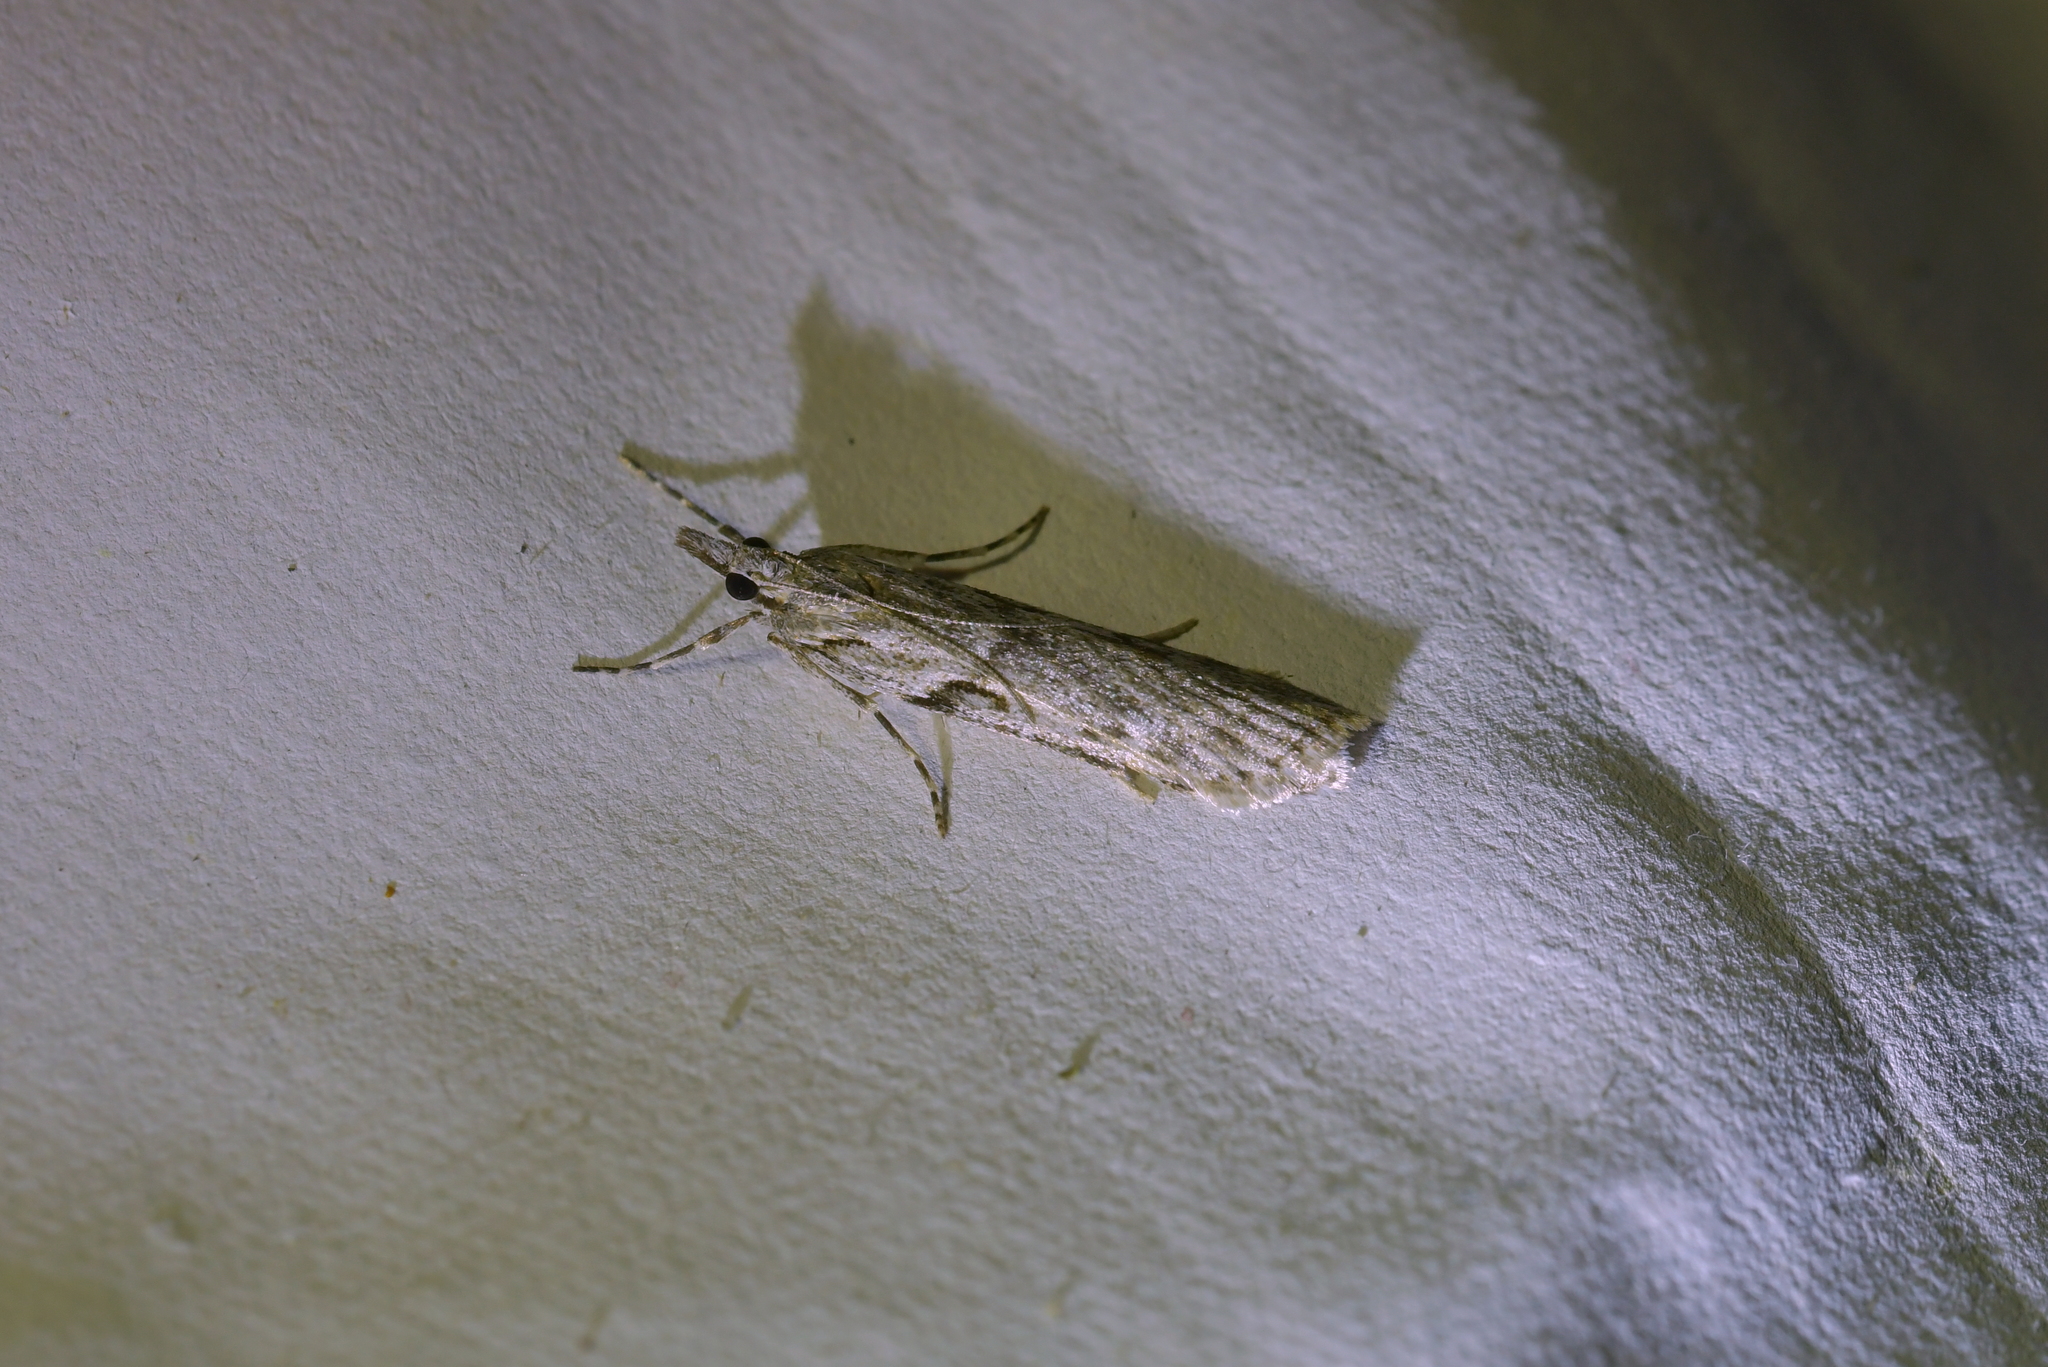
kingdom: Animalia
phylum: Arthropoda
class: Insecta
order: Lepidoptera
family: Crambidae
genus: Scoparia
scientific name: Scoparia halopis
